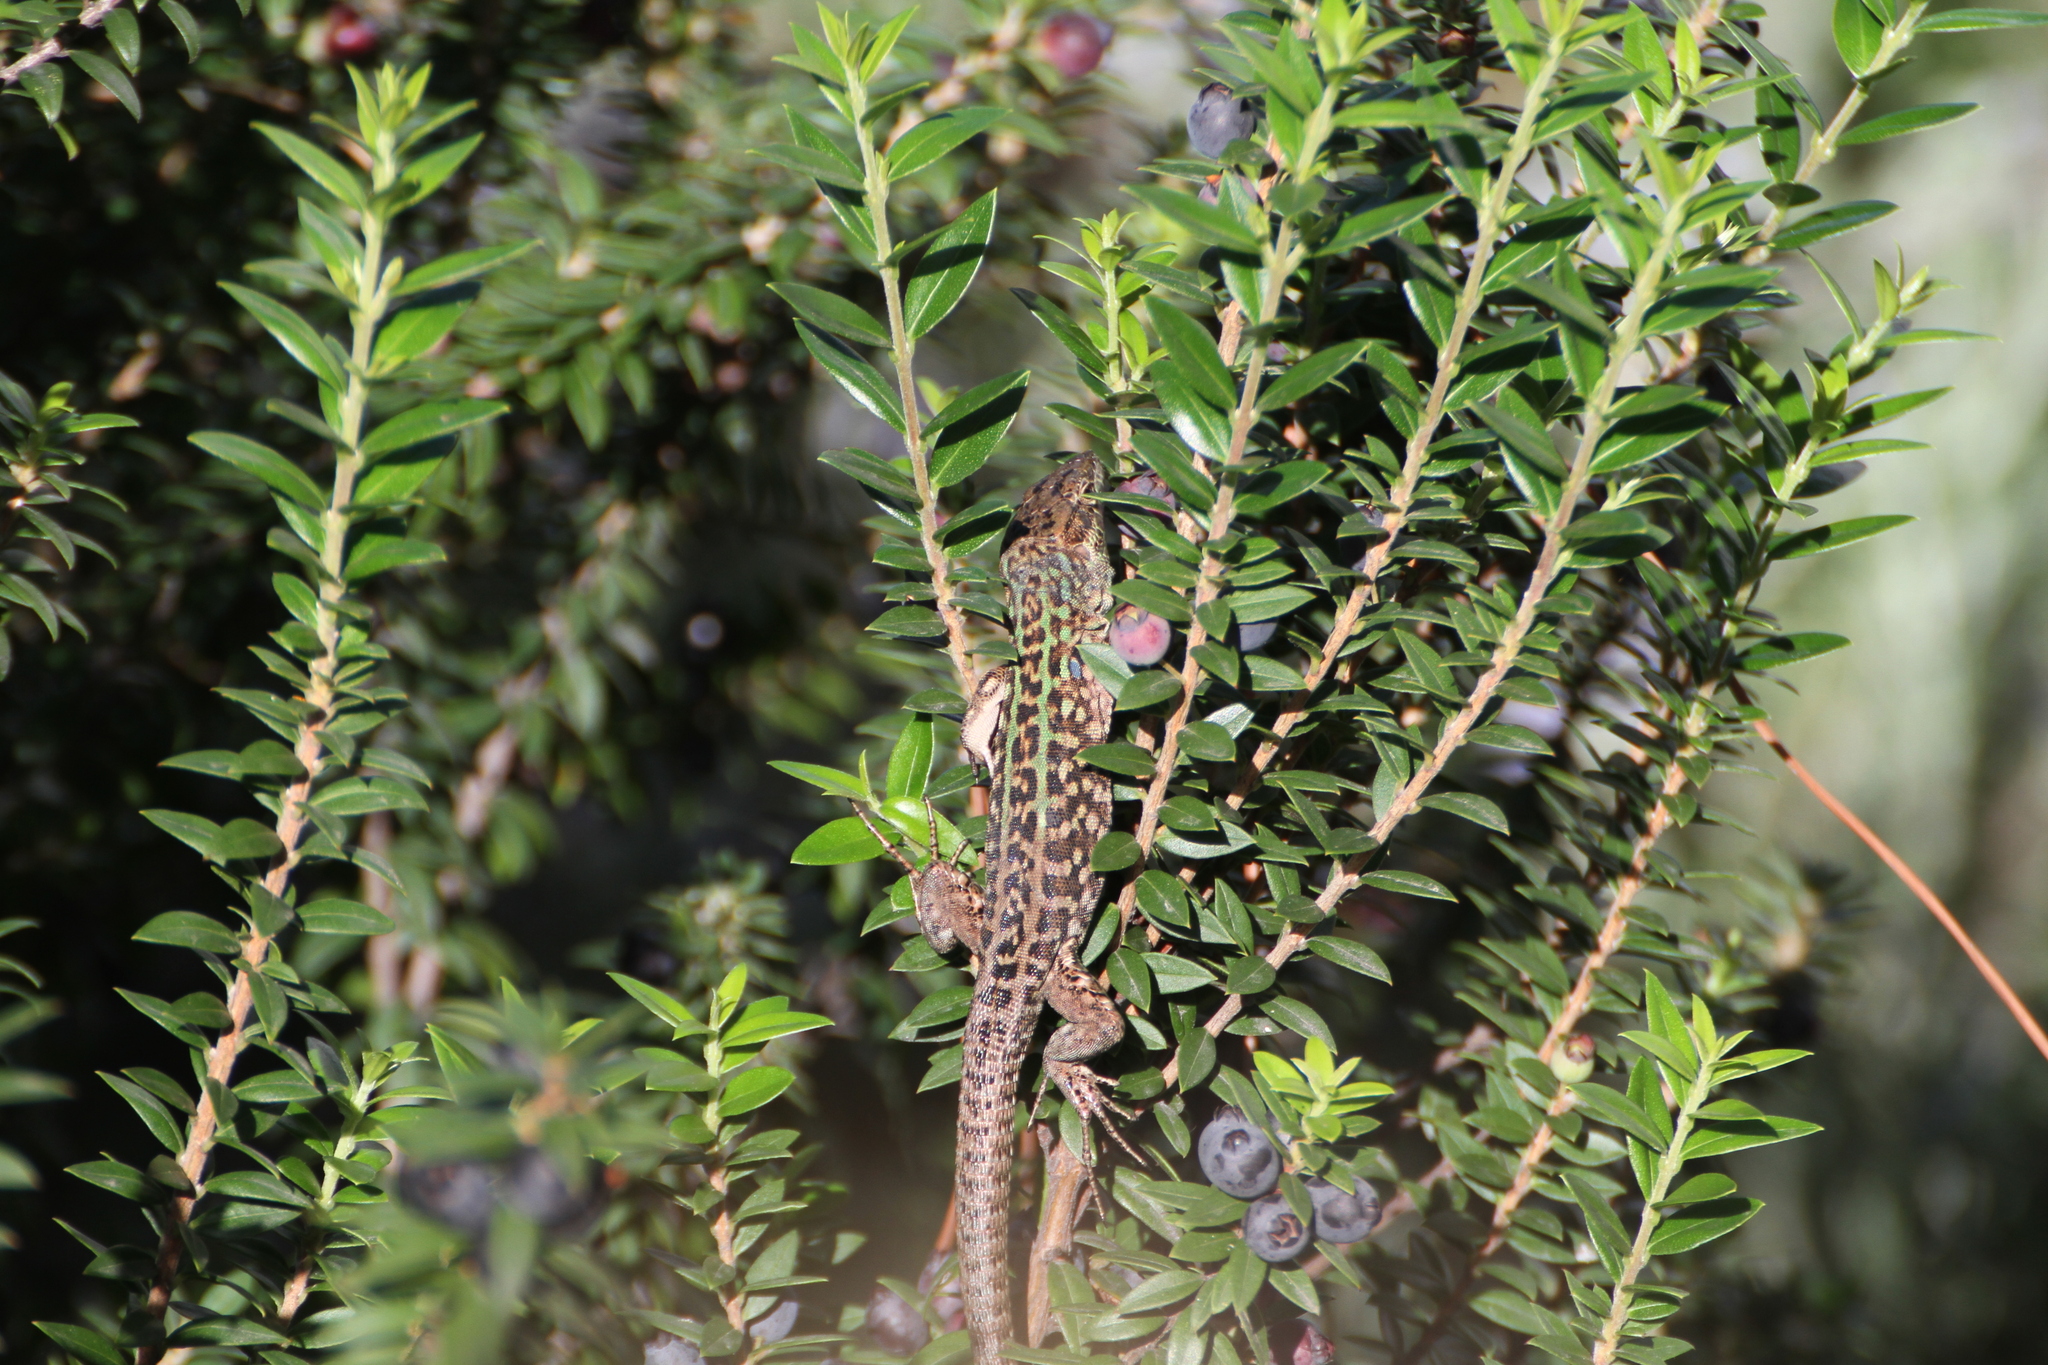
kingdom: Animalia
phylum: Chordata
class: Squamata
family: Lacertidae
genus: Podarcis
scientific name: Podarcis siculus
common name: Italian wall lizard
